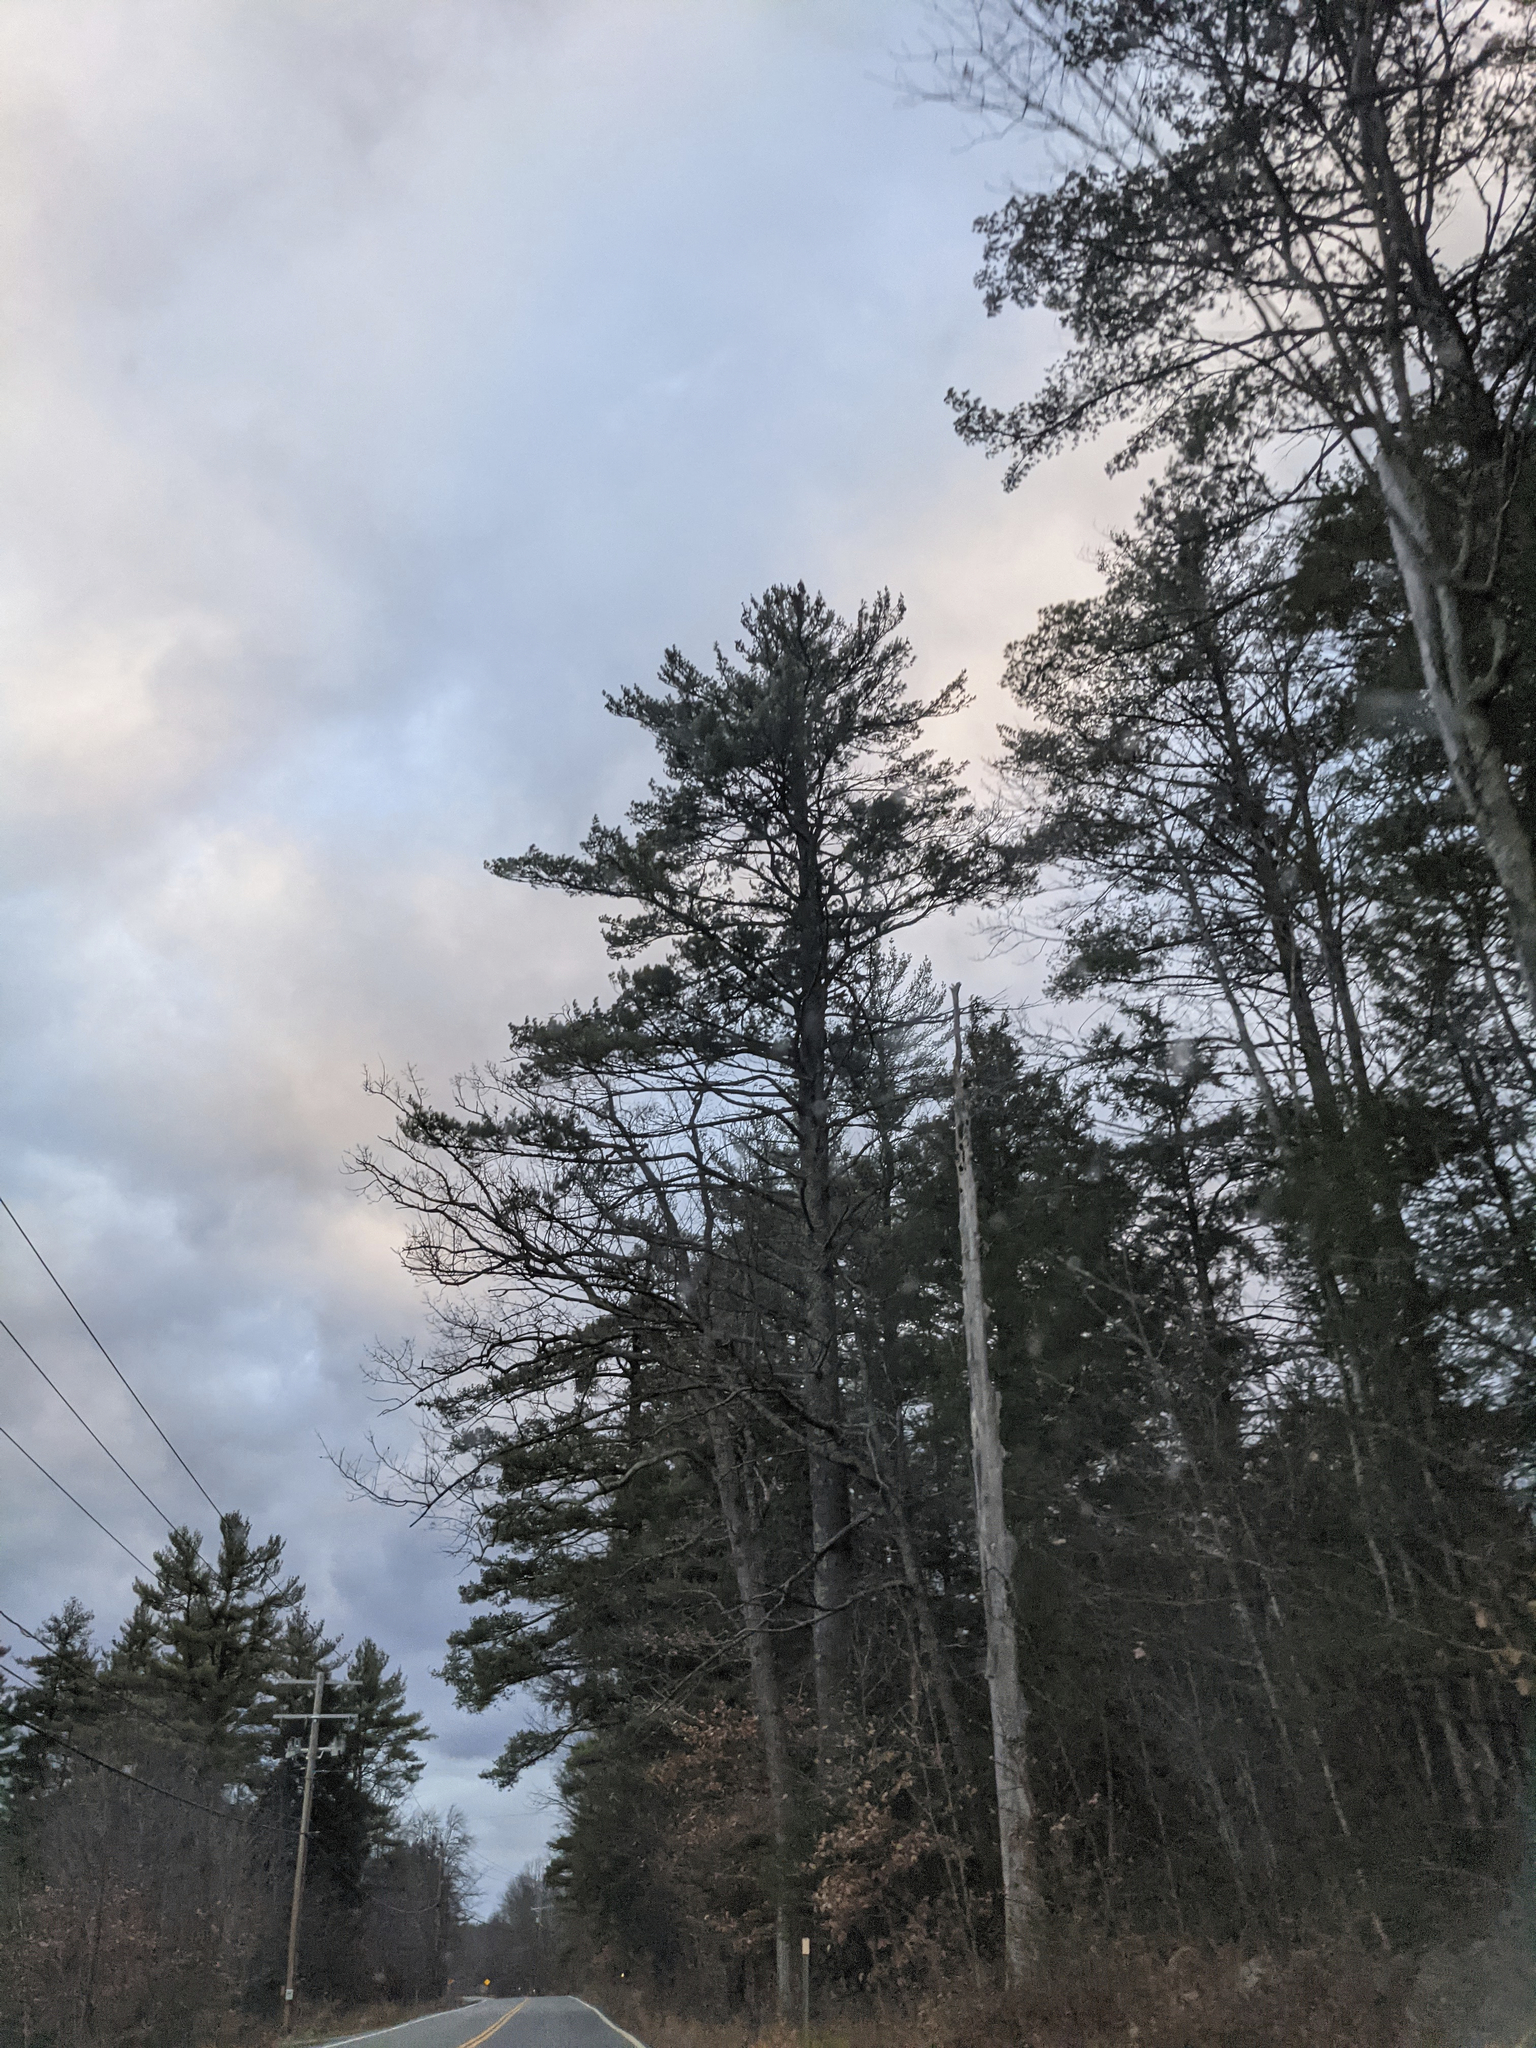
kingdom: Plantae
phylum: Tracheophyta
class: Pinopsida
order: Pinales
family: Pinaceae
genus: Pinus
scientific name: Pinus strobus
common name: Weymouth pine
